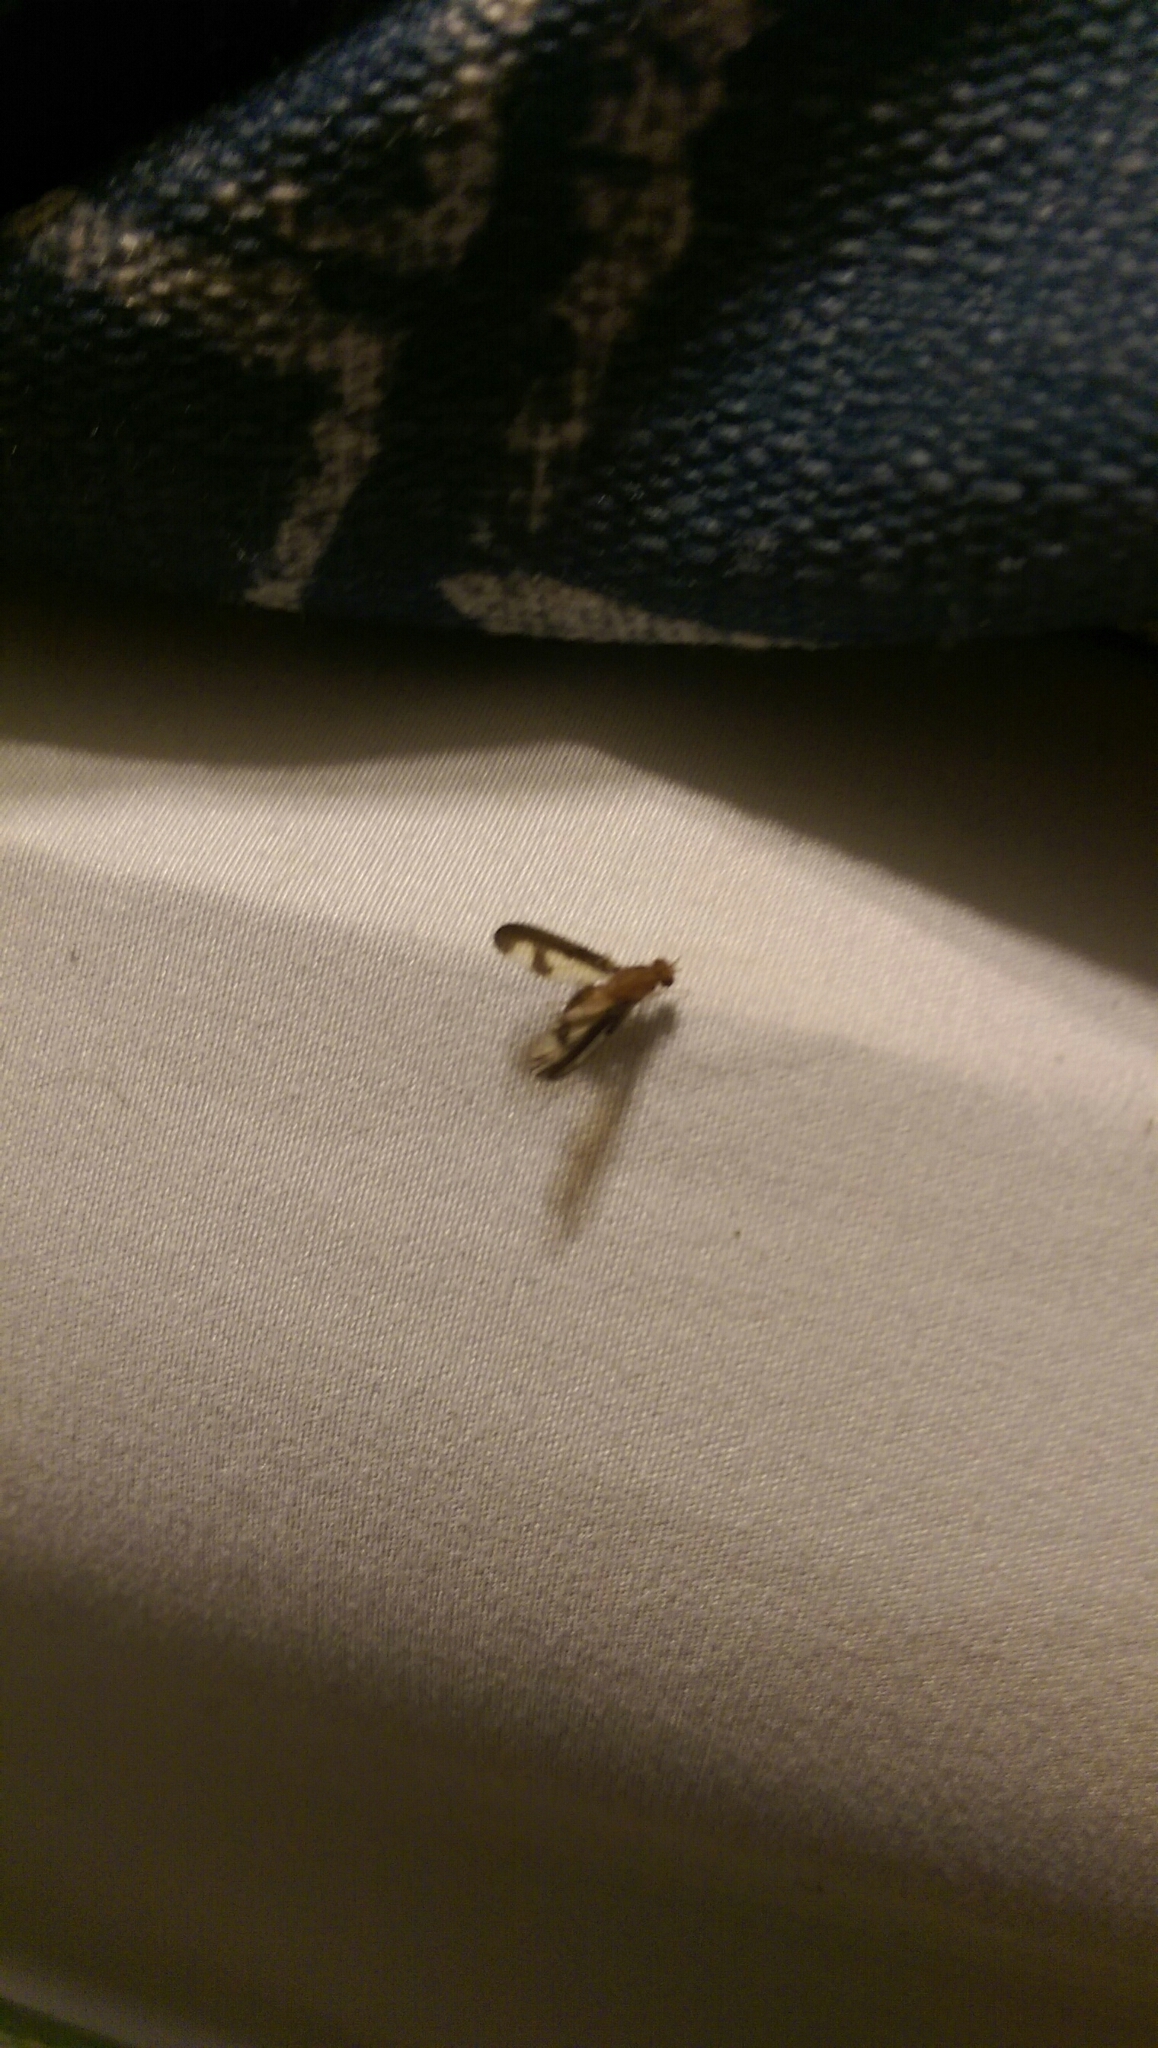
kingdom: Animalia
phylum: Arthropoda
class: Insecta
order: Diptera
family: Pallopteridae
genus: Toxonevra
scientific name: Toxonevra superba
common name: Antlered flutter fly
